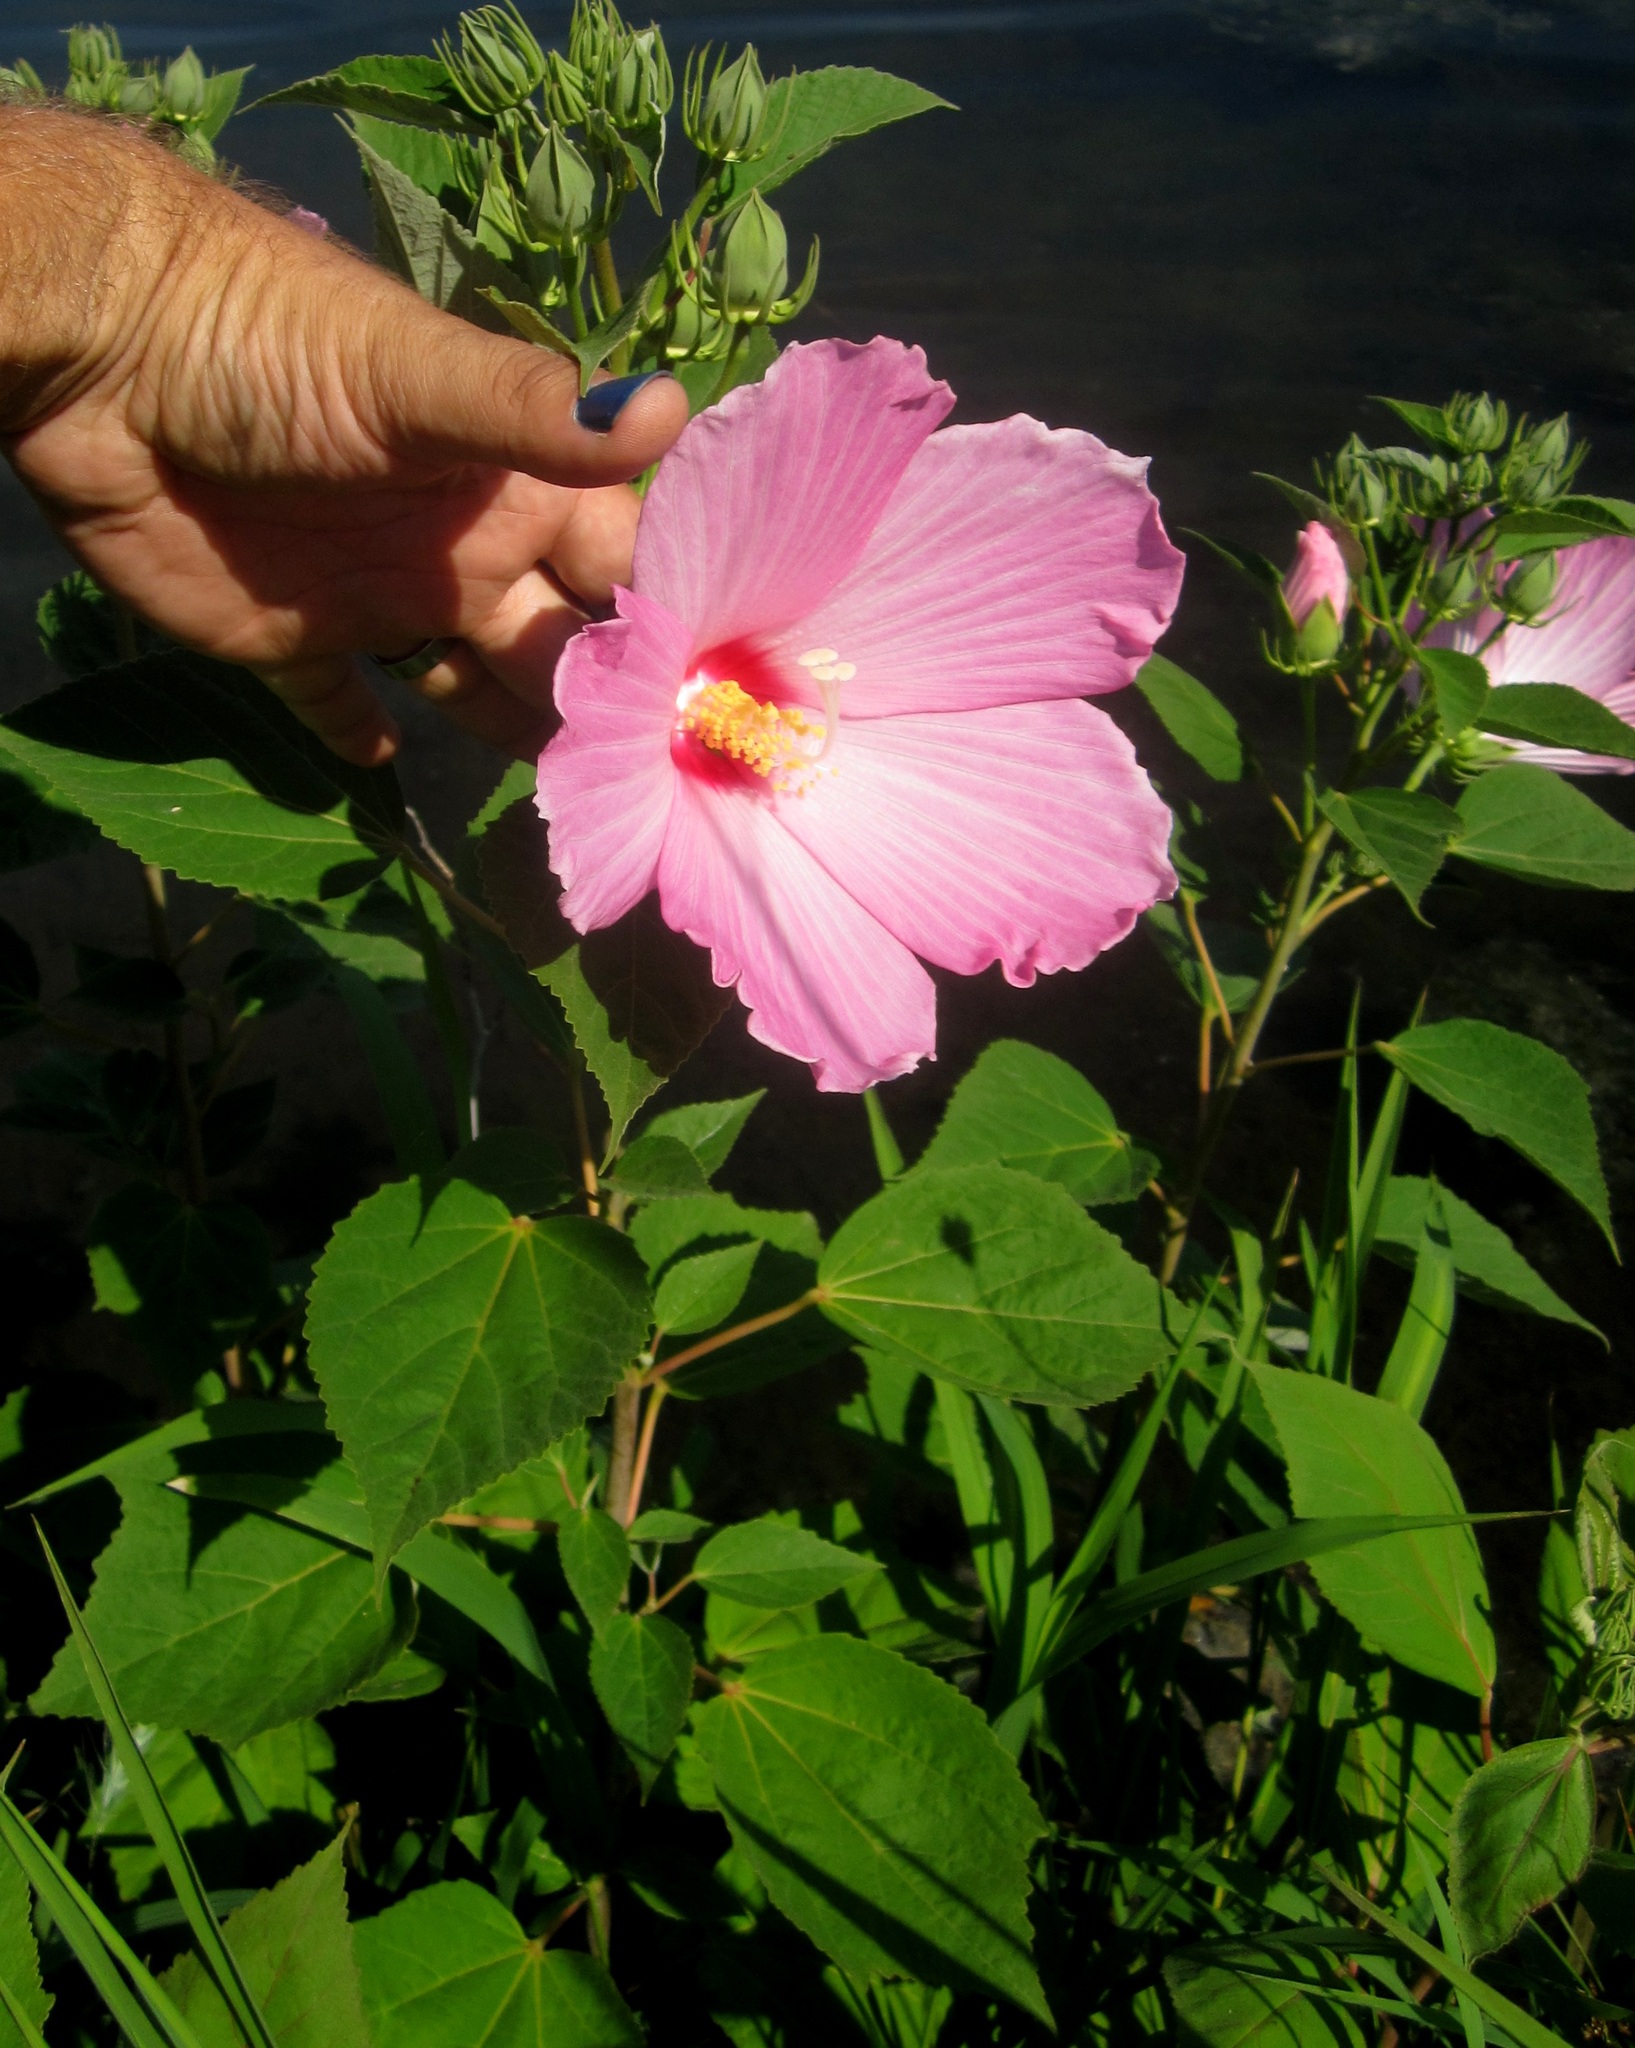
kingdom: Plantae
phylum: Tracheophyta
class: Magnoliopsida
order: Malvales
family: Malvaceae
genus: Hibiscus
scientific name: Hibiscus moscheutos
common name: Common rose-mallow
